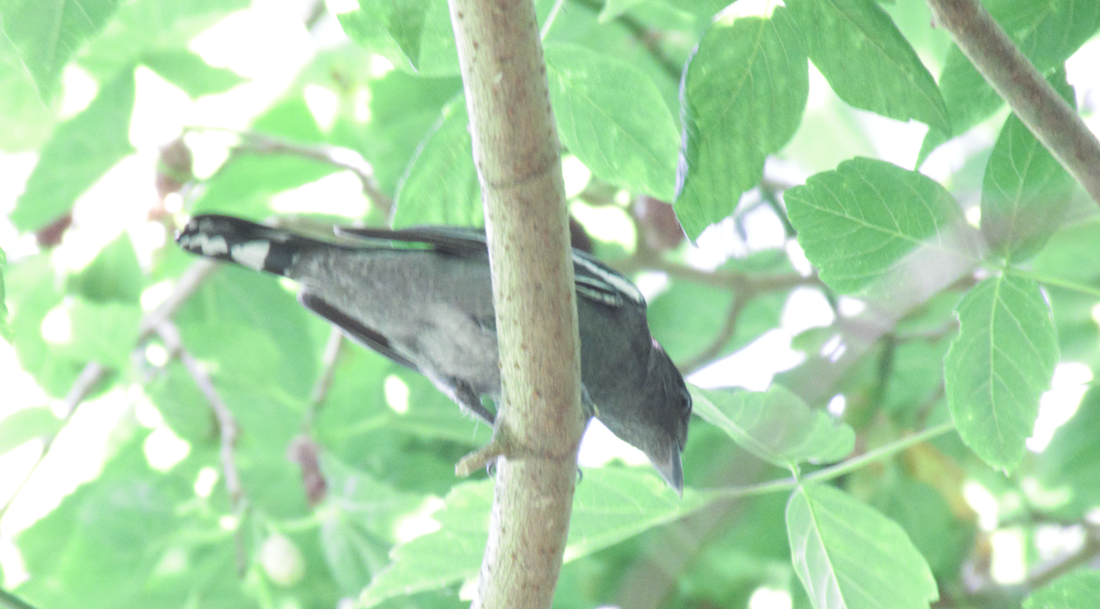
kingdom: Animalia
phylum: Chordata
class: Aves
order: Passeriformes
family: Cotingidae
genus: Pachyramphus
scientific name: Pachyramphus polychopterus
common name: White-winged becard
